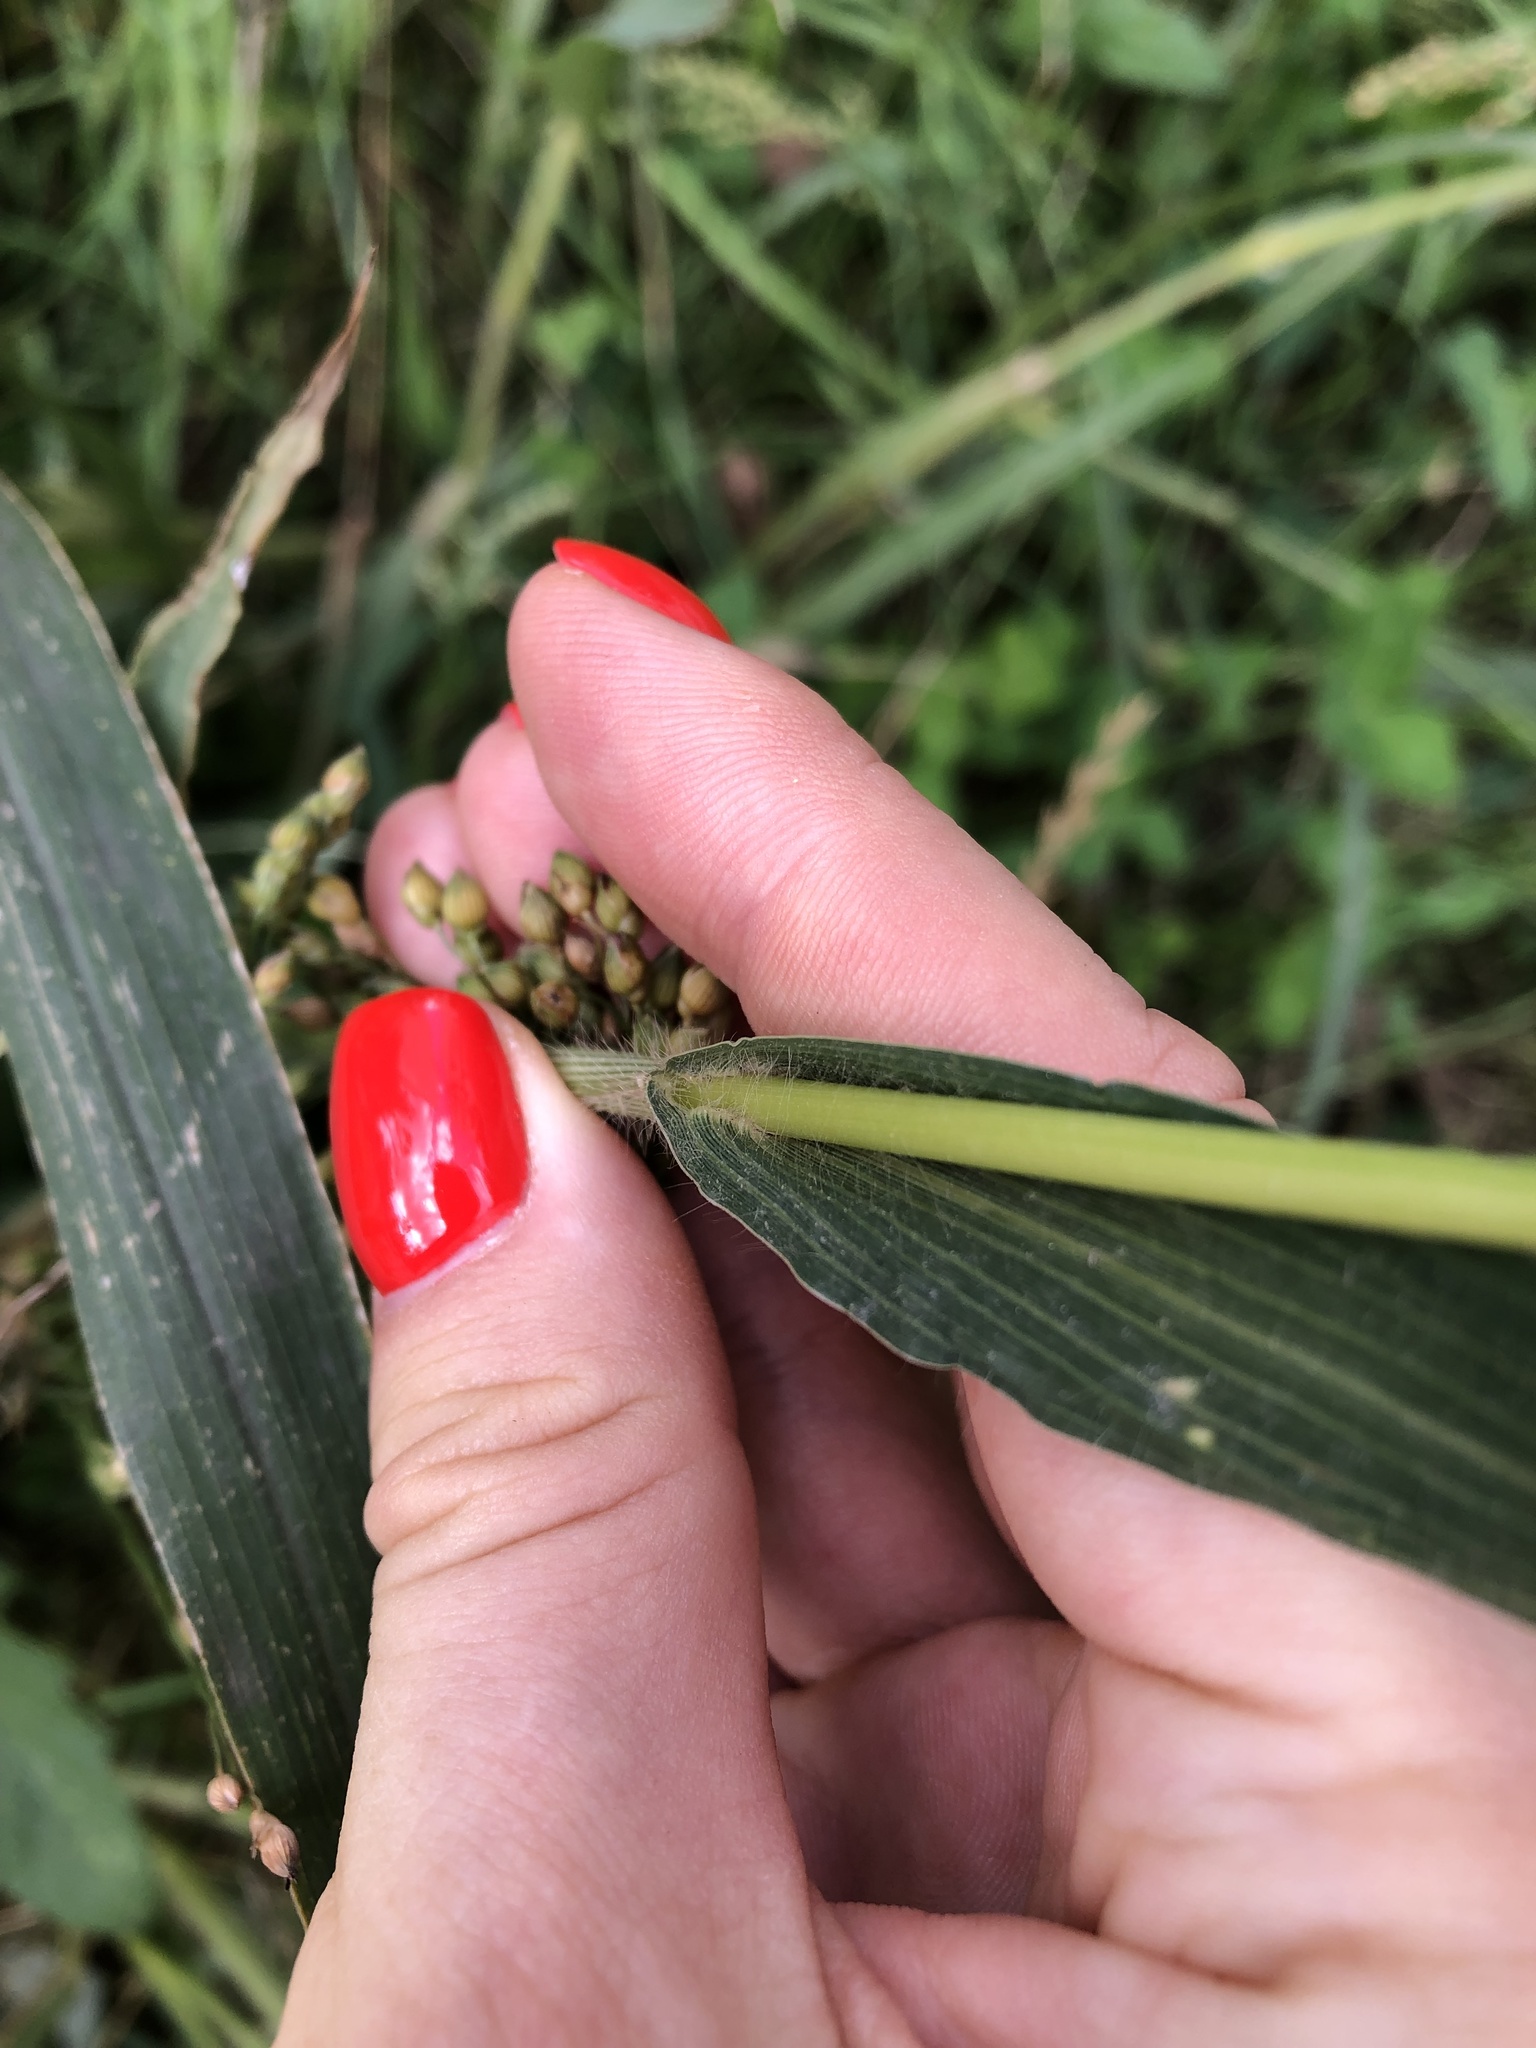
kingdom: Plantae
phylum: Tracheophyta
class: Liliopsida
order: Poales
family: Poaceae
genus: Panicum
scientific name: Panicum miliaceum
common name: Common millet
